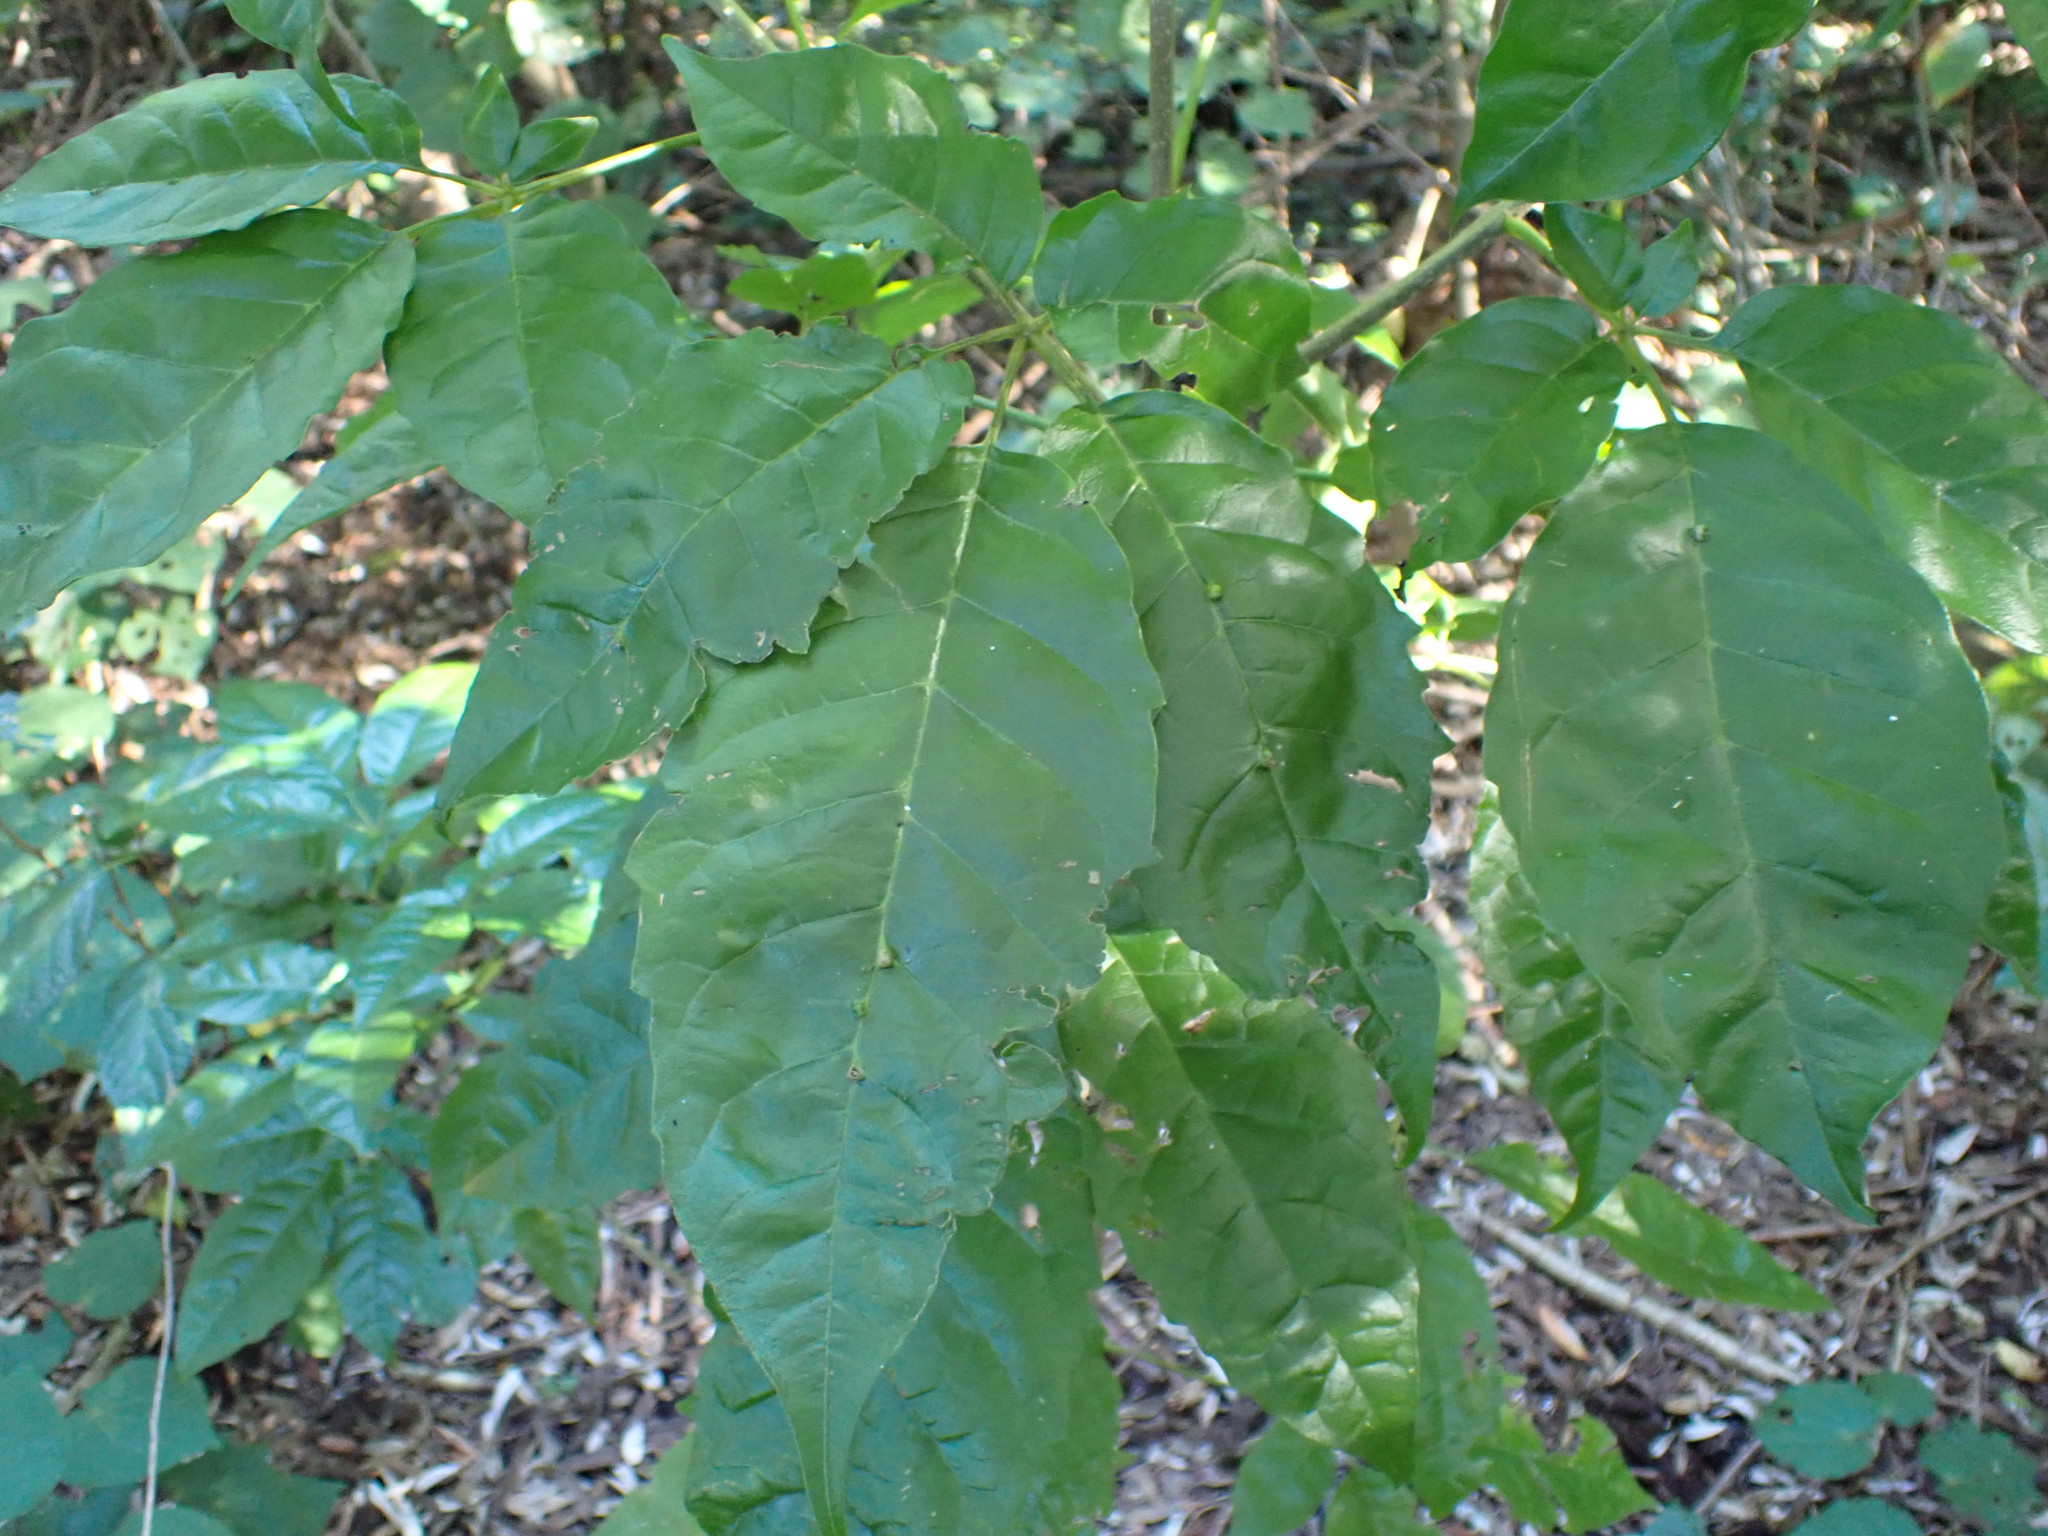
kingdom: Plantae
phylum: Tracheophyta
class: Magnoliopsida
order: Lamiales
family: Lamiaceae
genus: Vitex
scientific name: Vitex lucens
